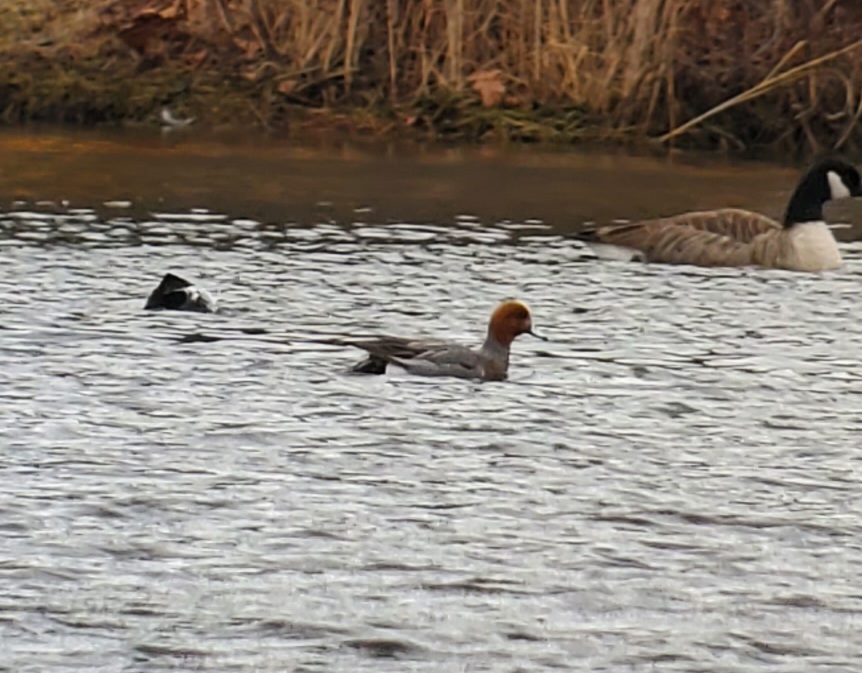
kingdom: Animalia
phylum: Chordata
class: Aves
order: Anseriformes
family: Anatidae
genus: Mareca
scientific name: Mareca penelope
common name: Eurasian wigeon
